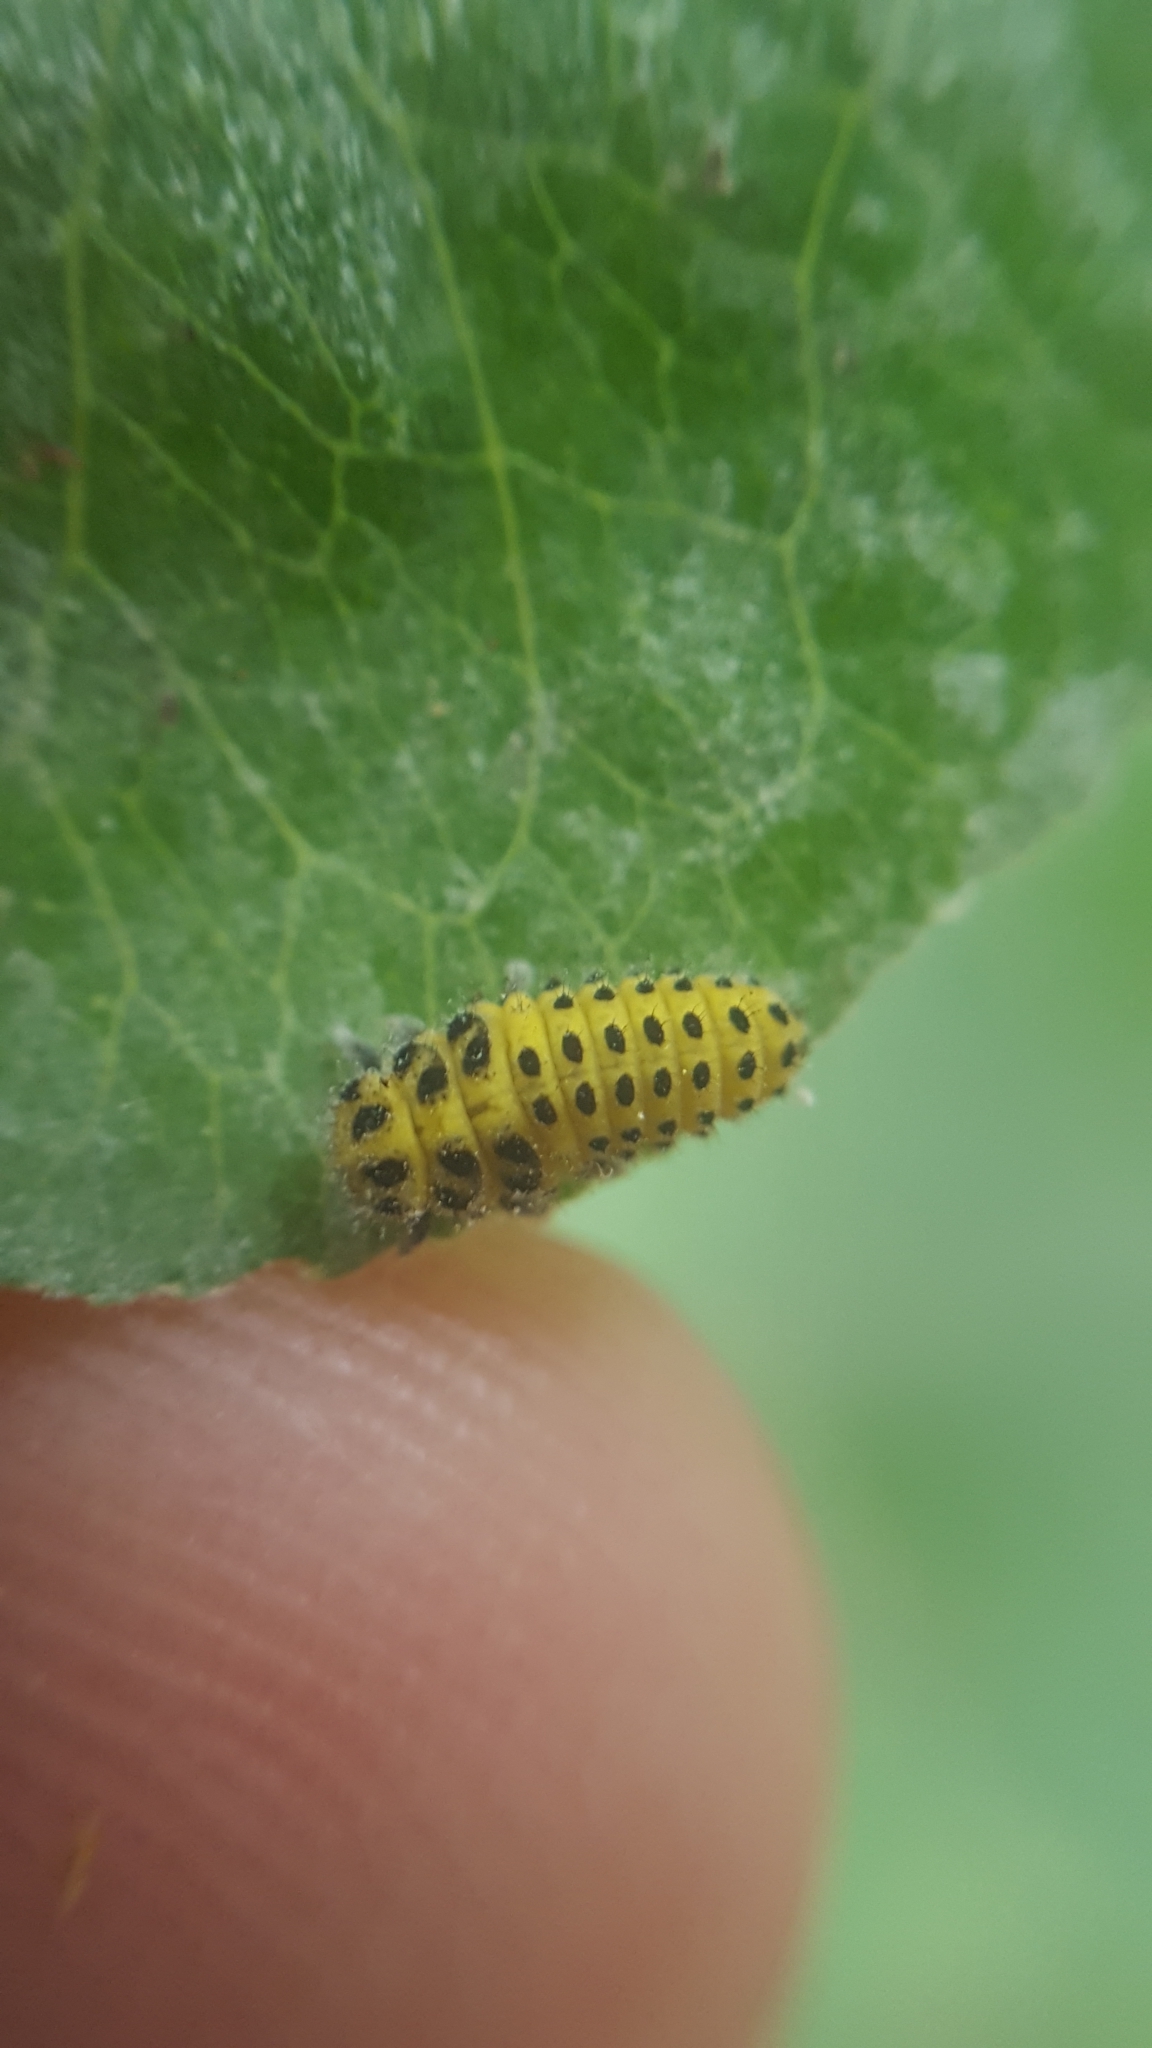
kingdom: Animalia
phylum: Arthropoda
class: Insecta
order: Coleoptera
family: Coccinellidae
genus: Psyllobora
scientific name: Psyllobora vigintiduopunctata
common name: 22-spot ladybird
